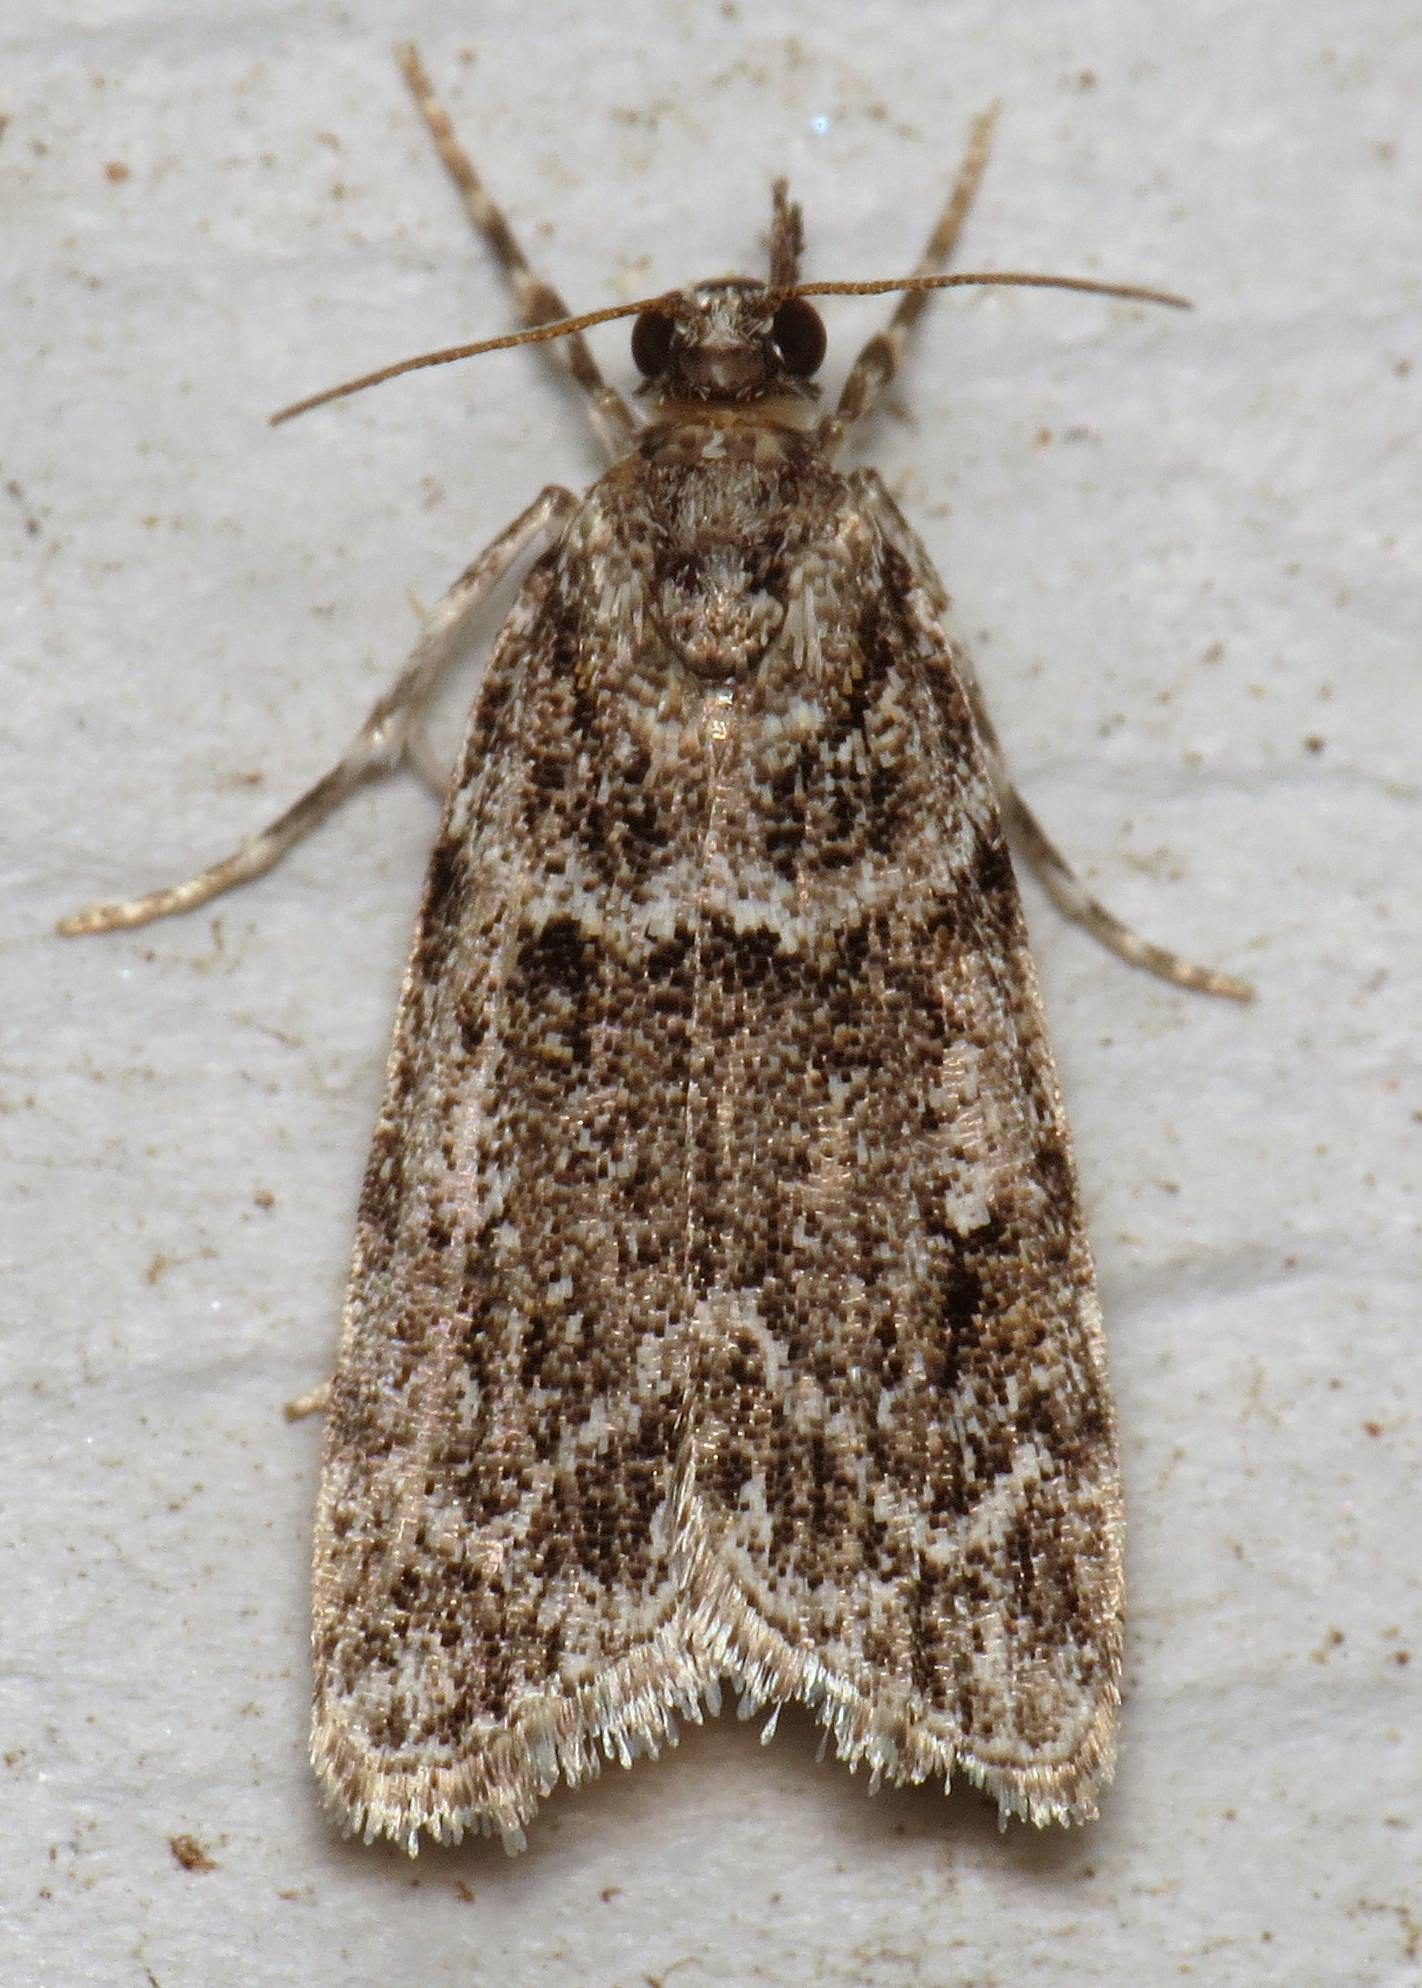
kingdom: Animalia
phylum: Arthropoda
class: Insecta
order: Lepidoptera
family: Crambidae
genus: Scoparia
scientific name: Scoparia biplagialis
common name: Double-striped scoparia moth
